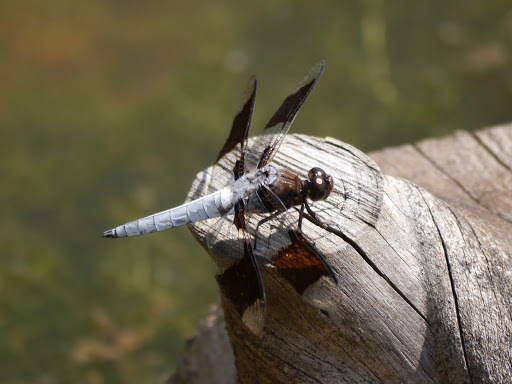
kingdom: Animalia
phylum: Arthropoda
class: Insecta
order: Odonata
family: Libellulidae
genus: Plathemis
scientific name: Plathemis lydia
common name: Common whitetail
